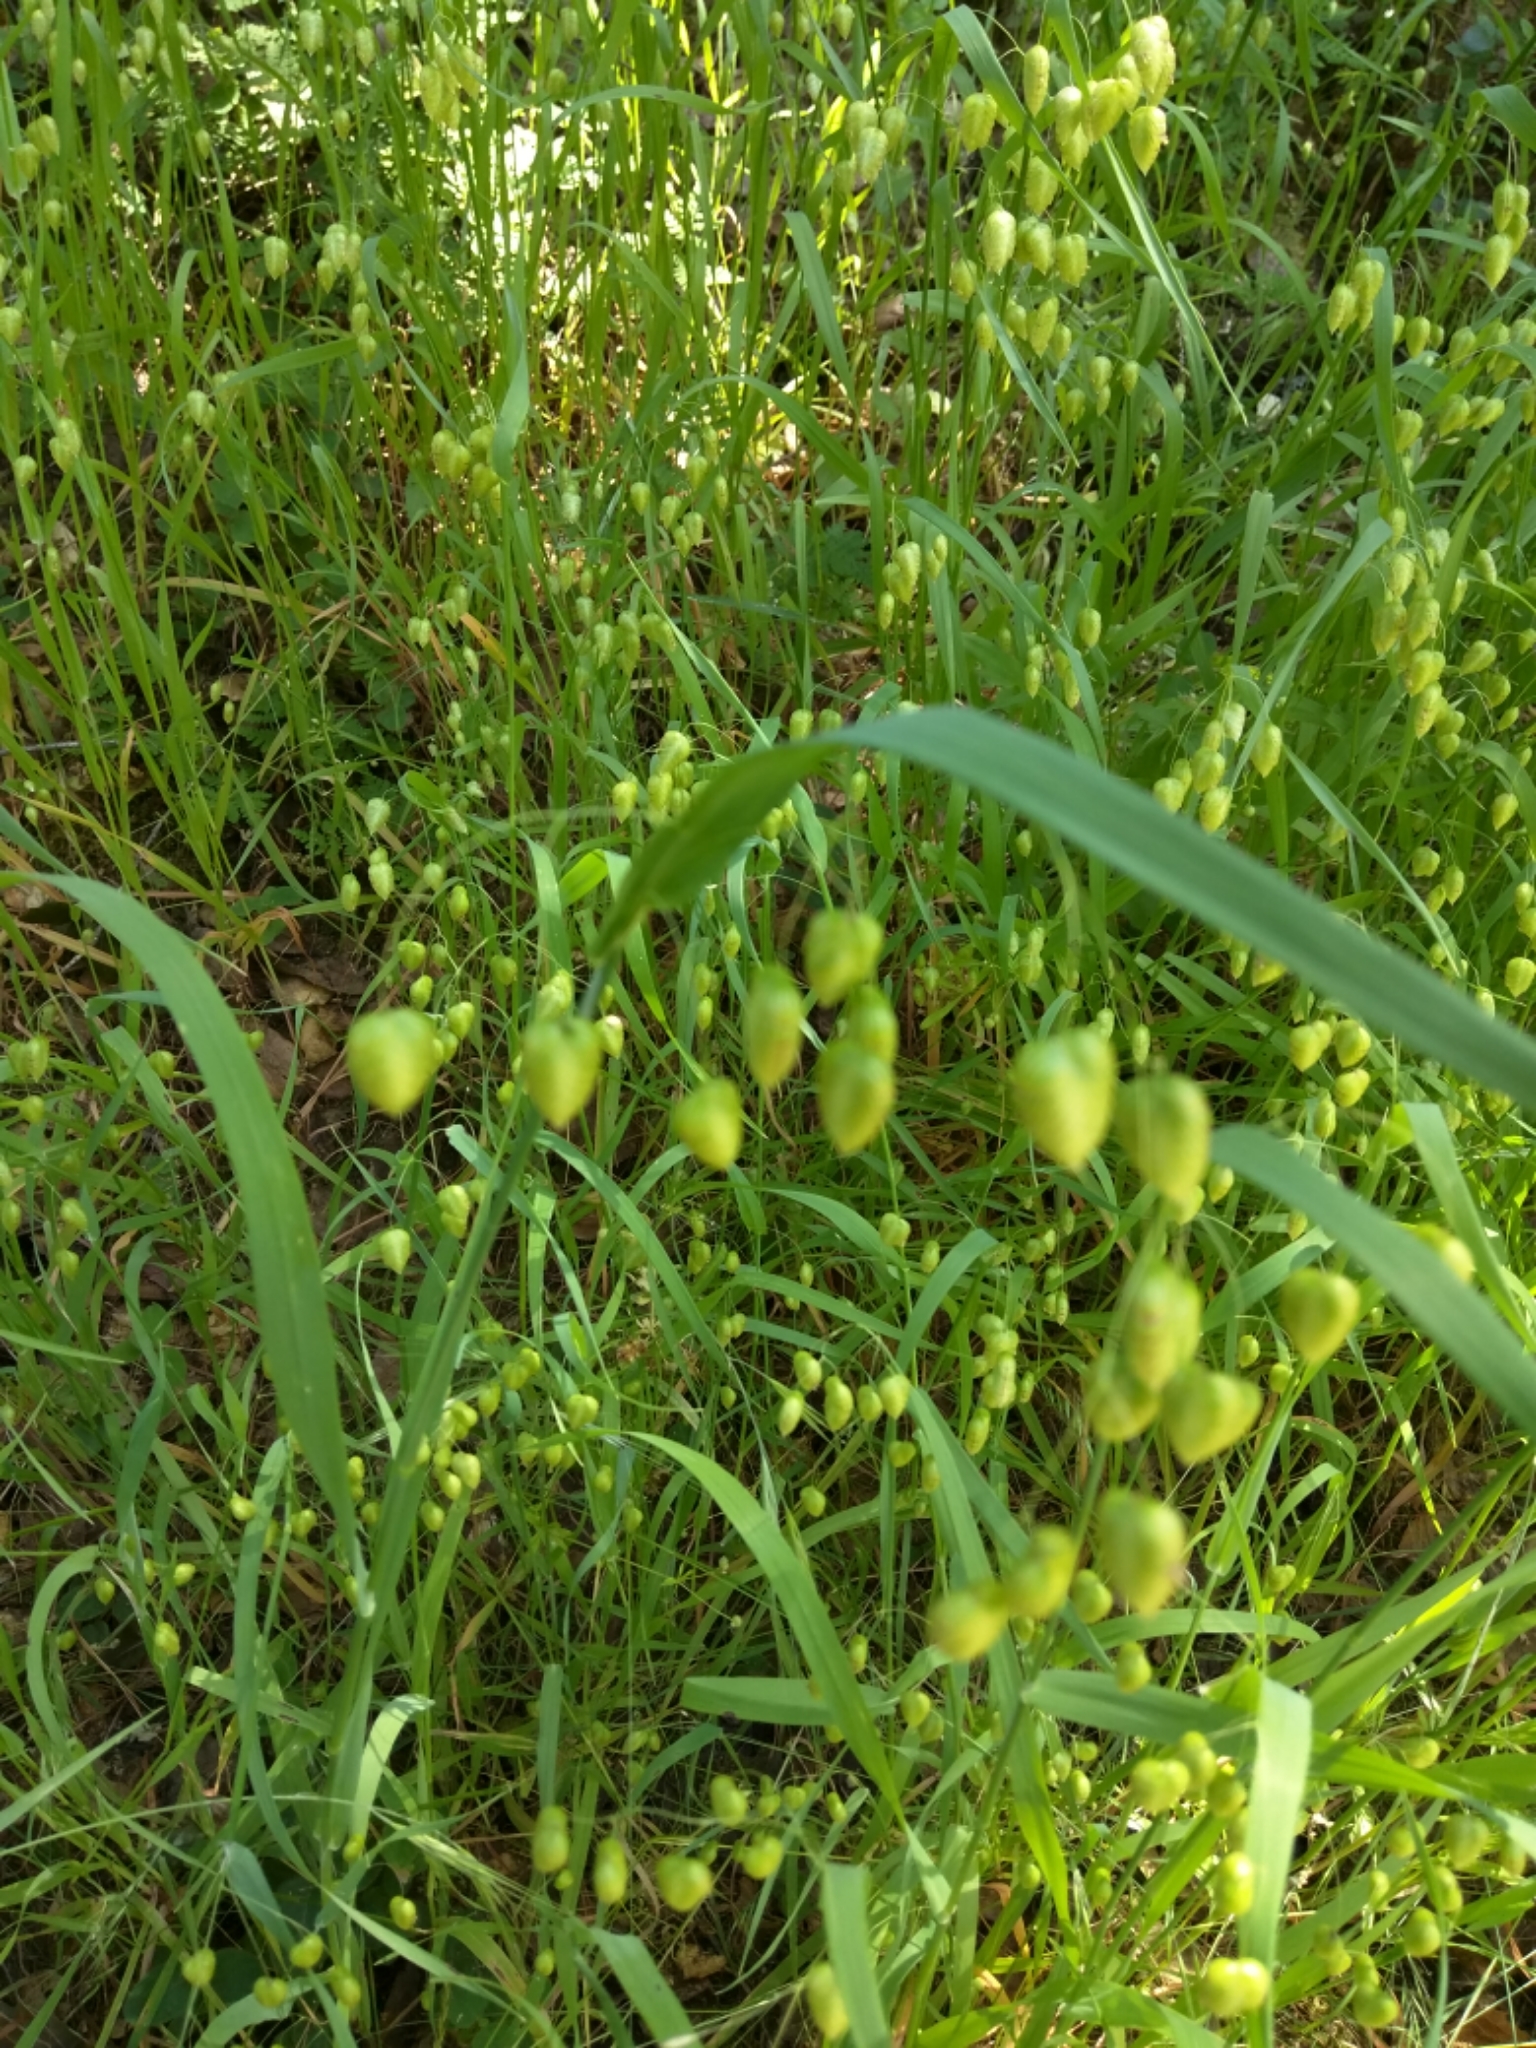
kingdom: Plantae
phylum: Tracheophyta
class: Liliopsida
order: Poales
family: Poaceae
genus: Briza
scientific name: Briza maxima
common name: Big quakinggrass
